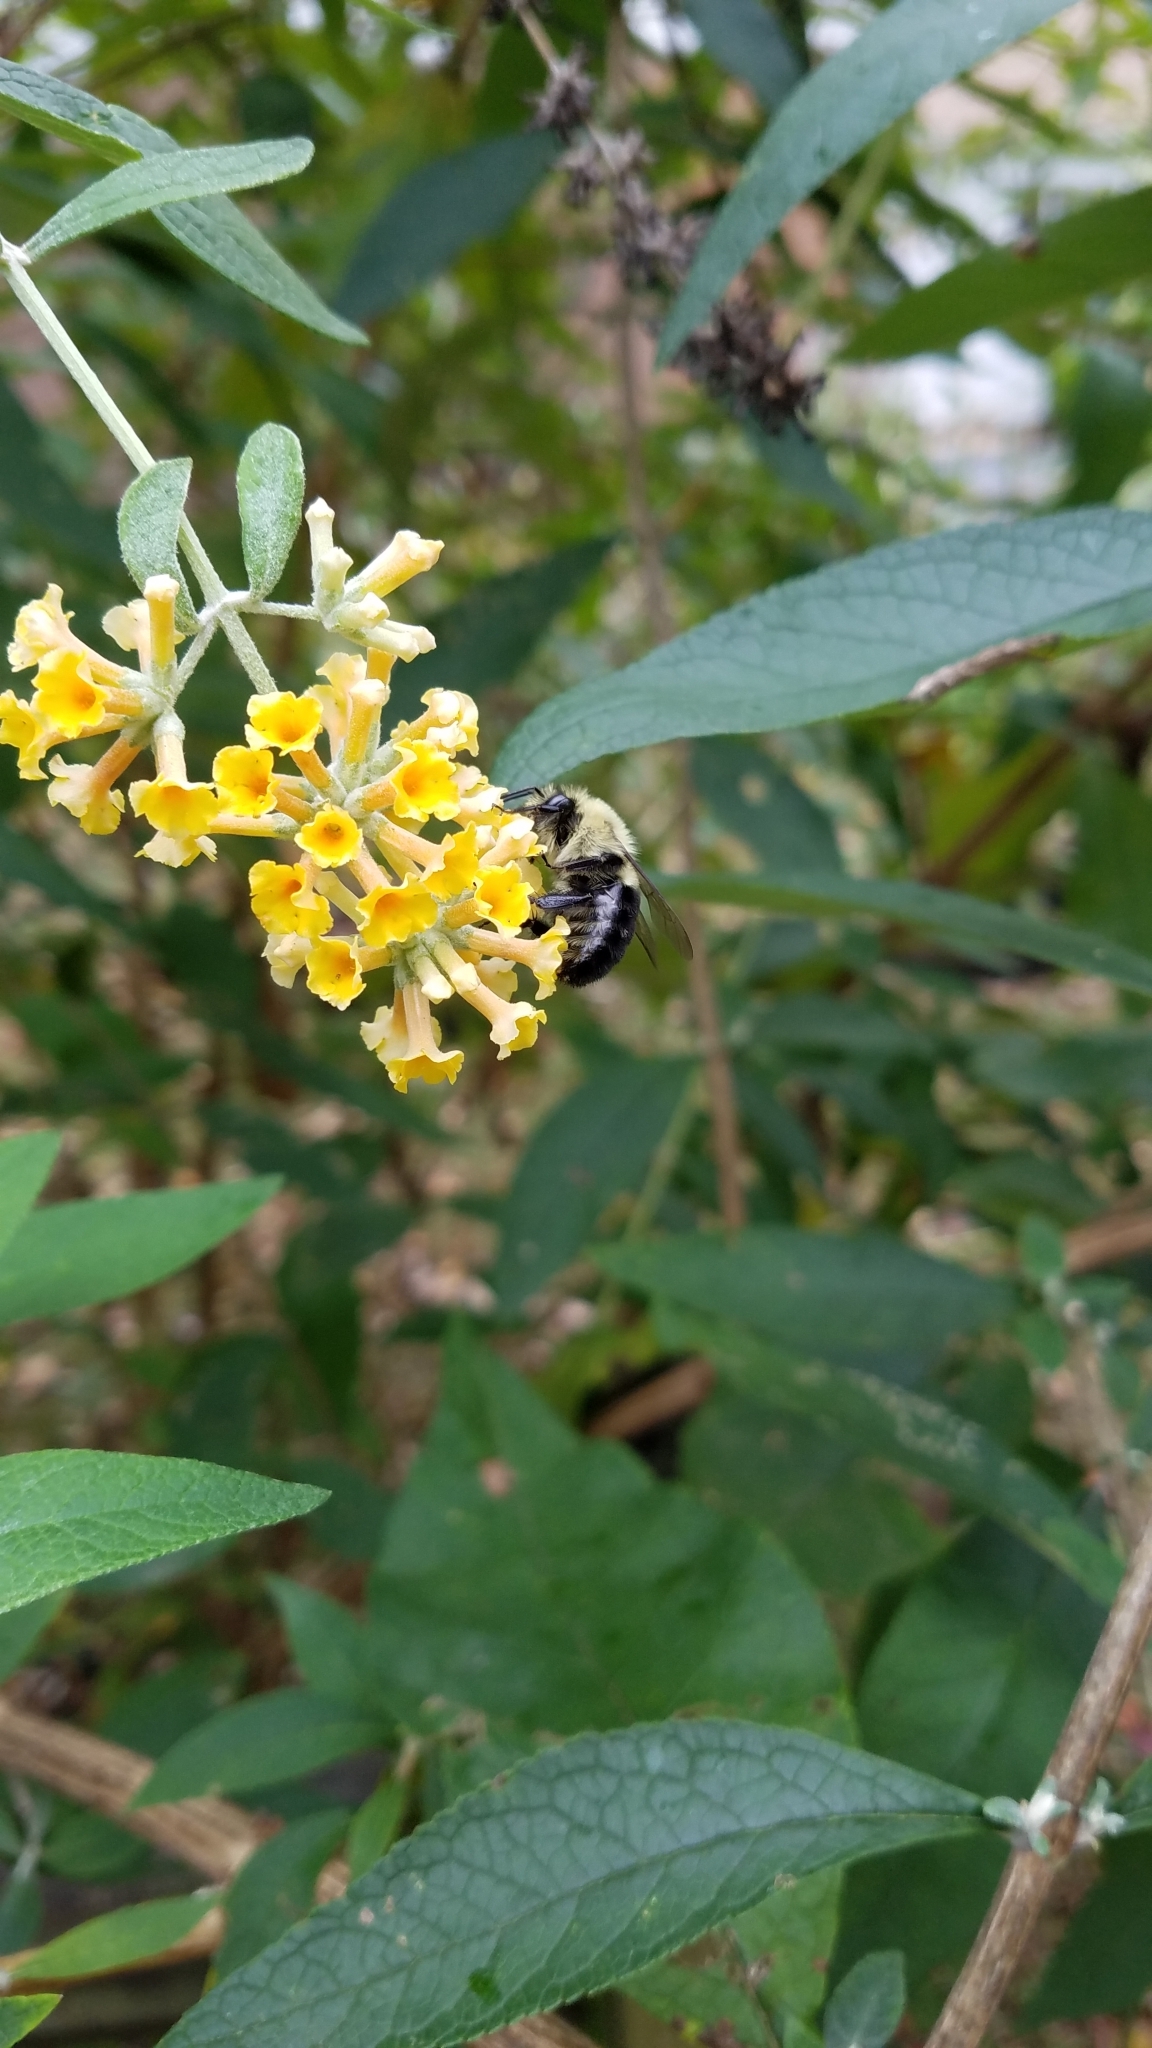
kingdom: Animalia
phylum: Arthropoda
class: Insecta
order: Hymenoptera
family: Apidae
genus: Bombus
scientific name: Bombus impatiens
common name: Common eastern bumble bee
